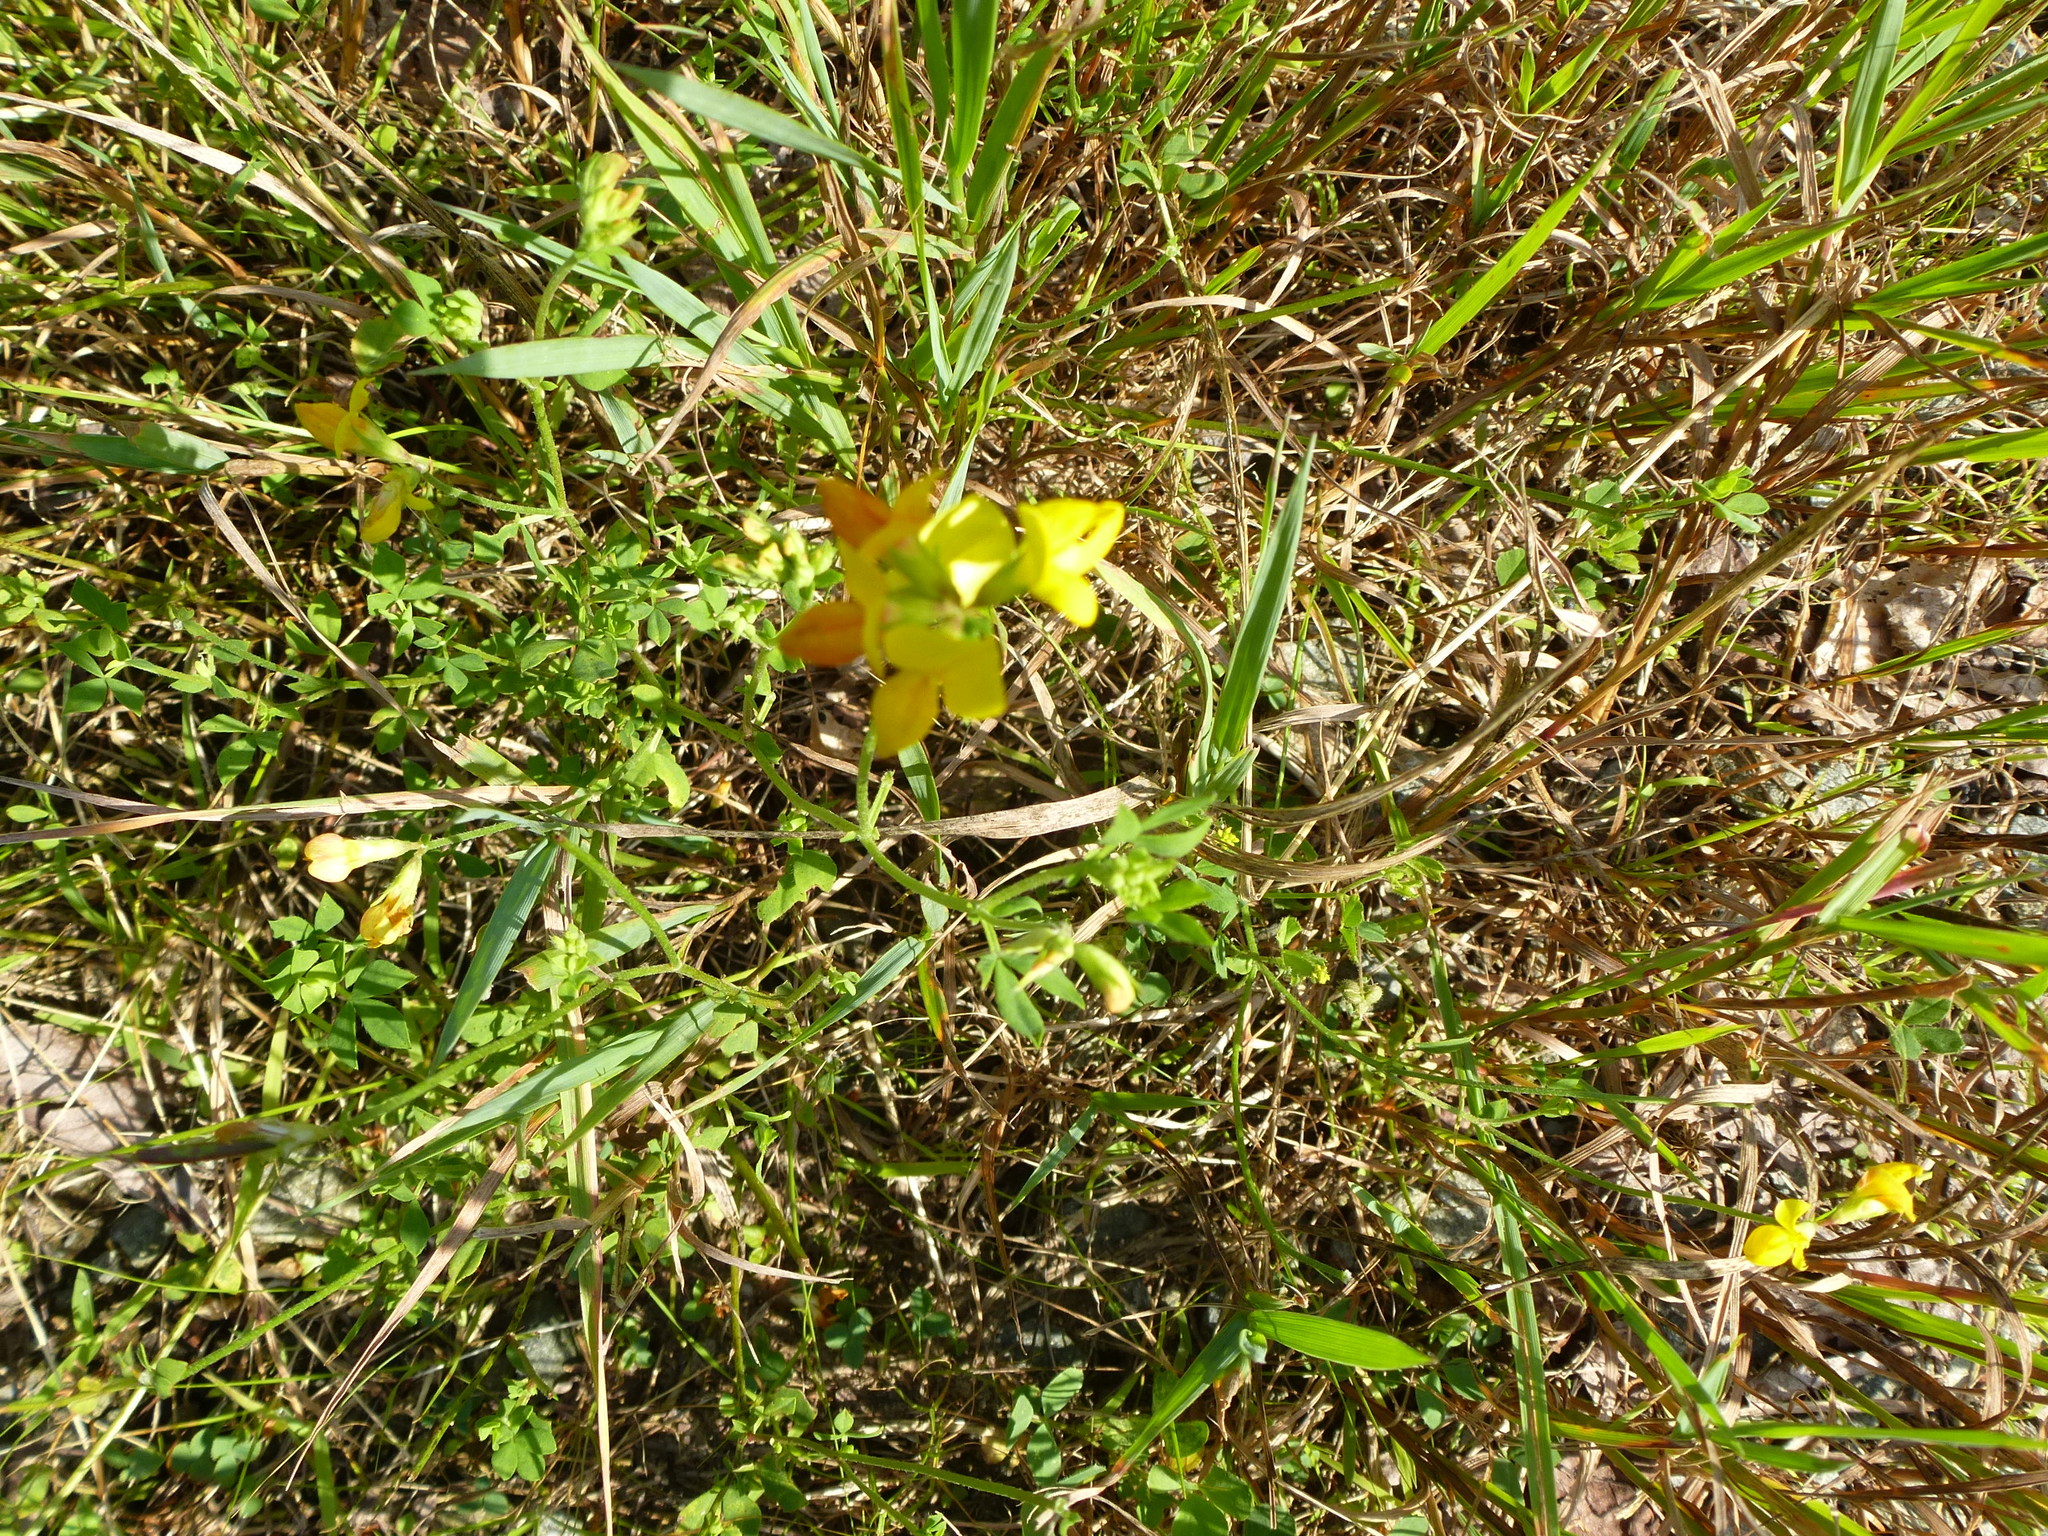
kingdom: Plantae
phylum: Tracheophyta
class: Magnoliopsida
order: Fabales
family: Fabaceae
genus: Lotus
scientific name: Lotus corniculatus
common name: Common bird's-foot-trefoil
